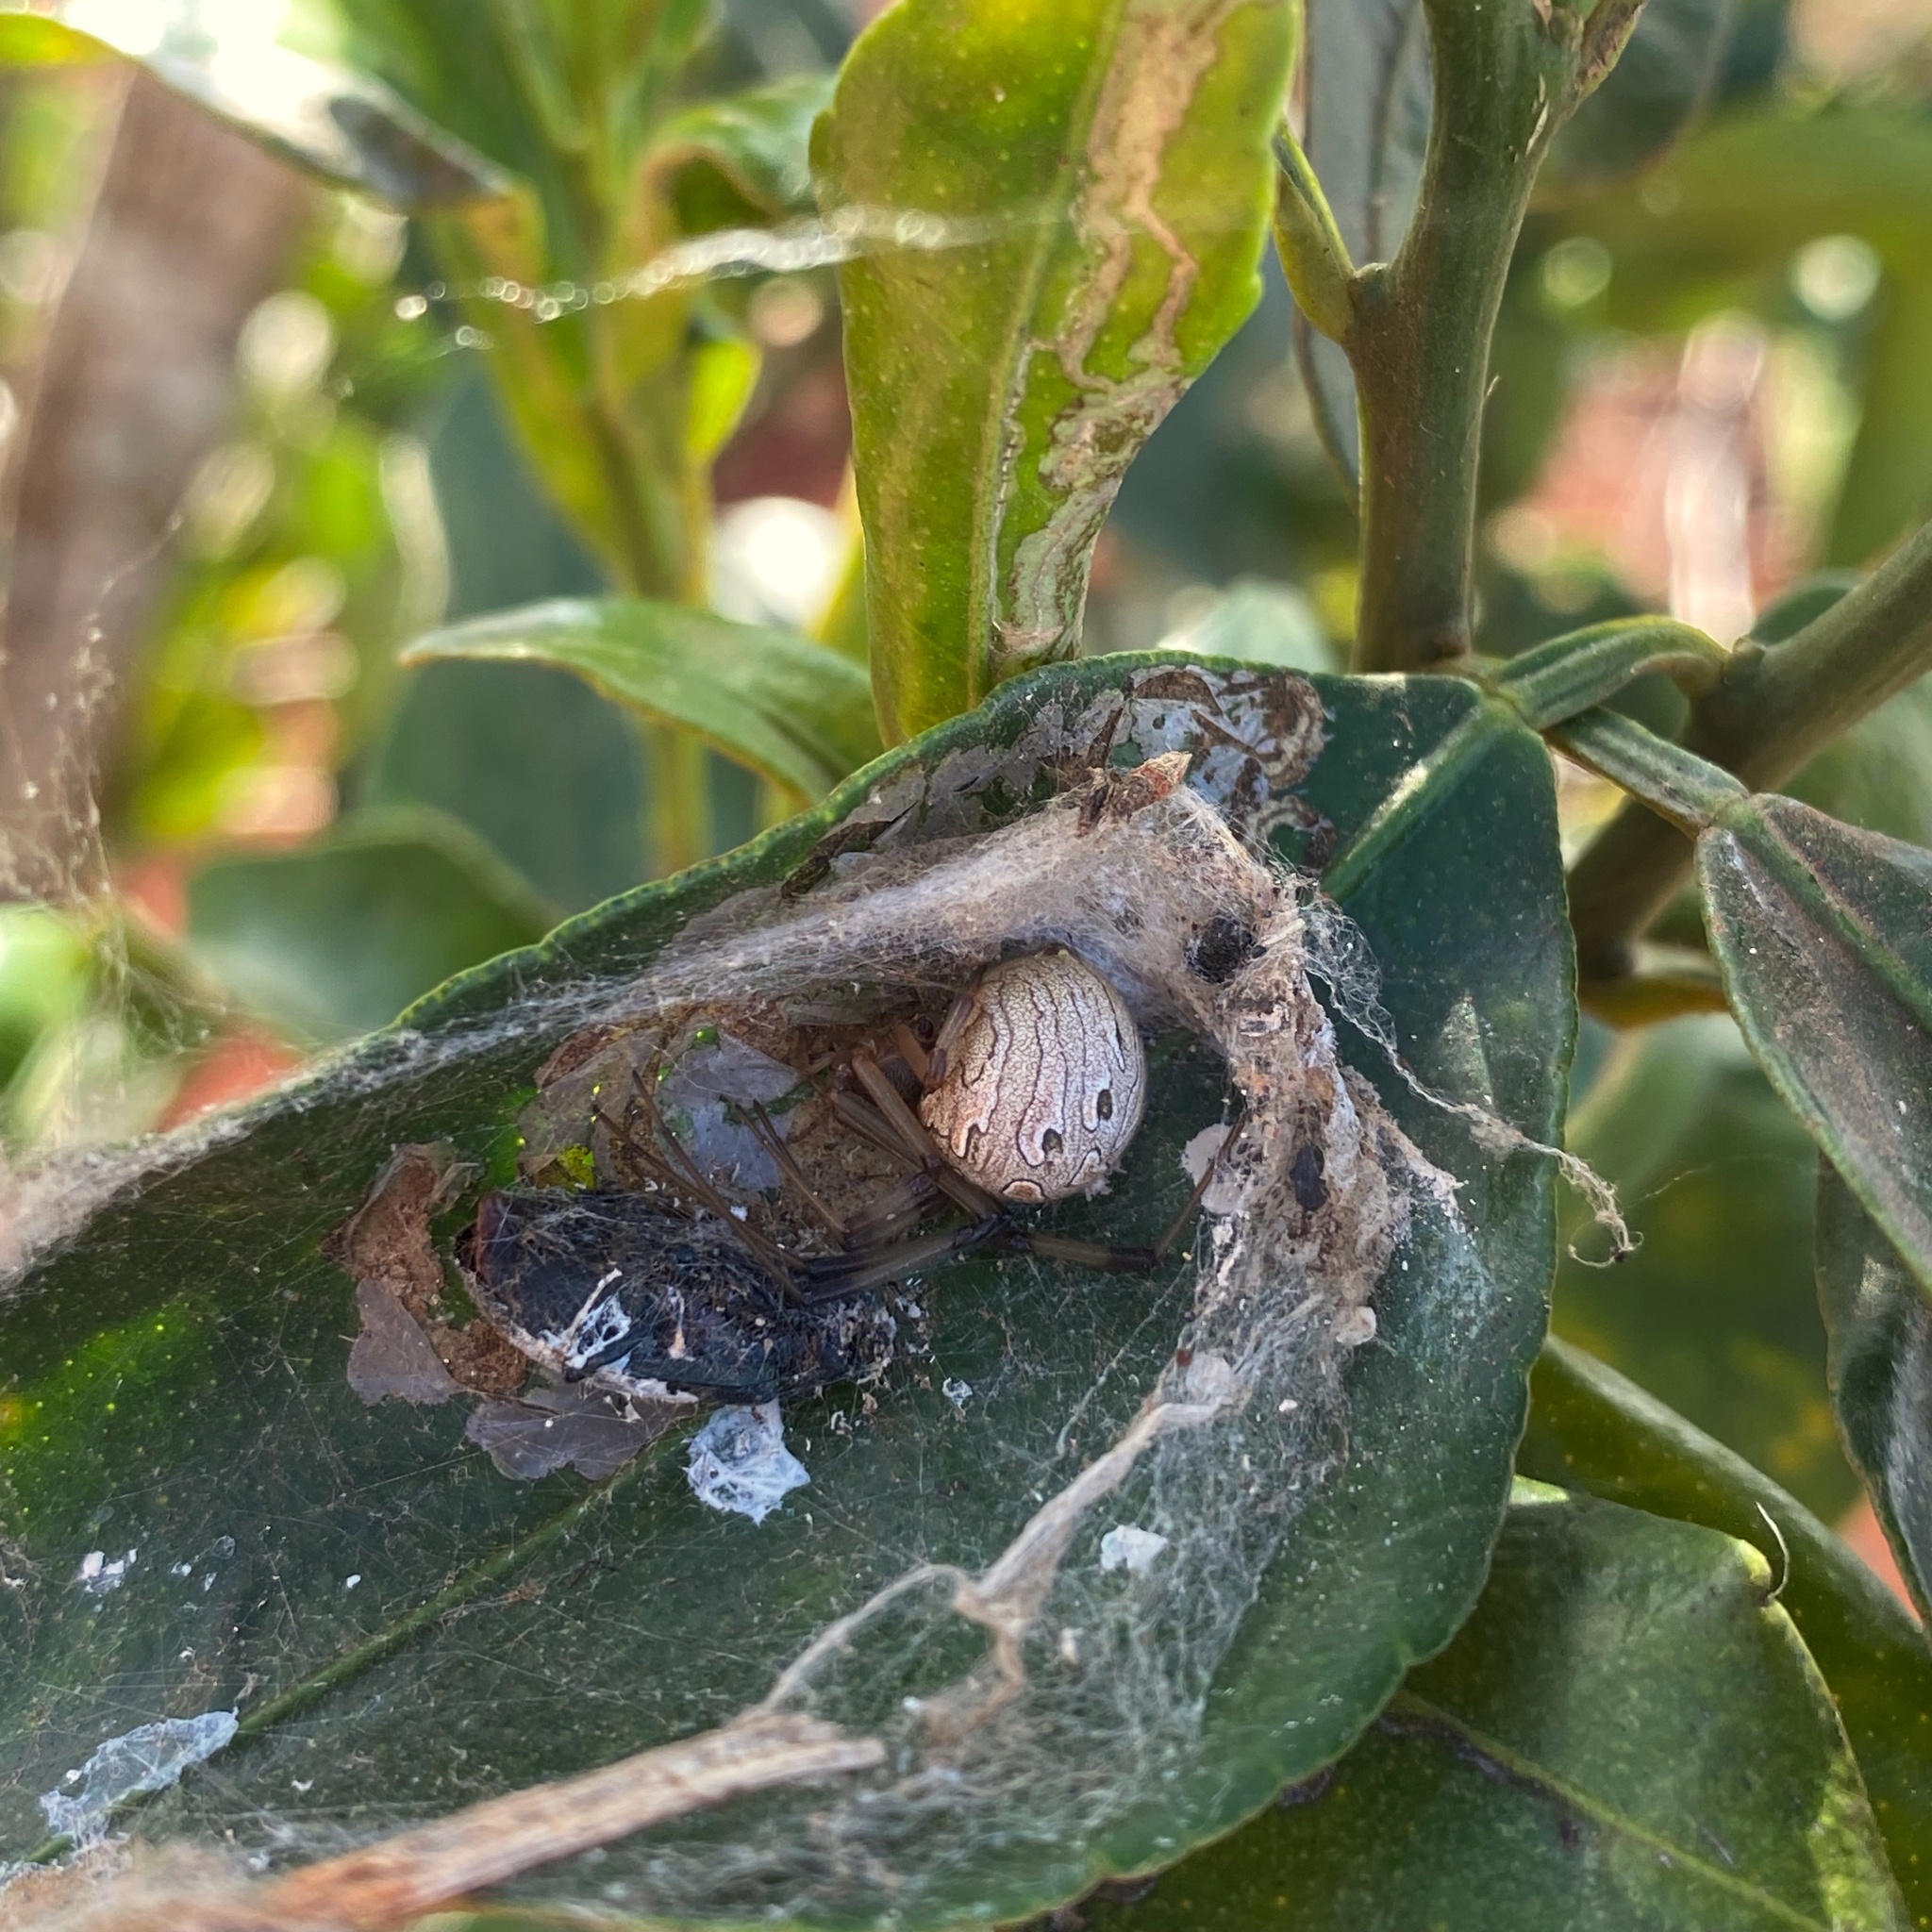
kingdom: Animalia
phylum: Arthropoda
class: Arachnida
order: Araneae
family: Theridiidae
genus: Latrodectus
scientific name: Latrodectus geometricus
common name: Brown widow spider
